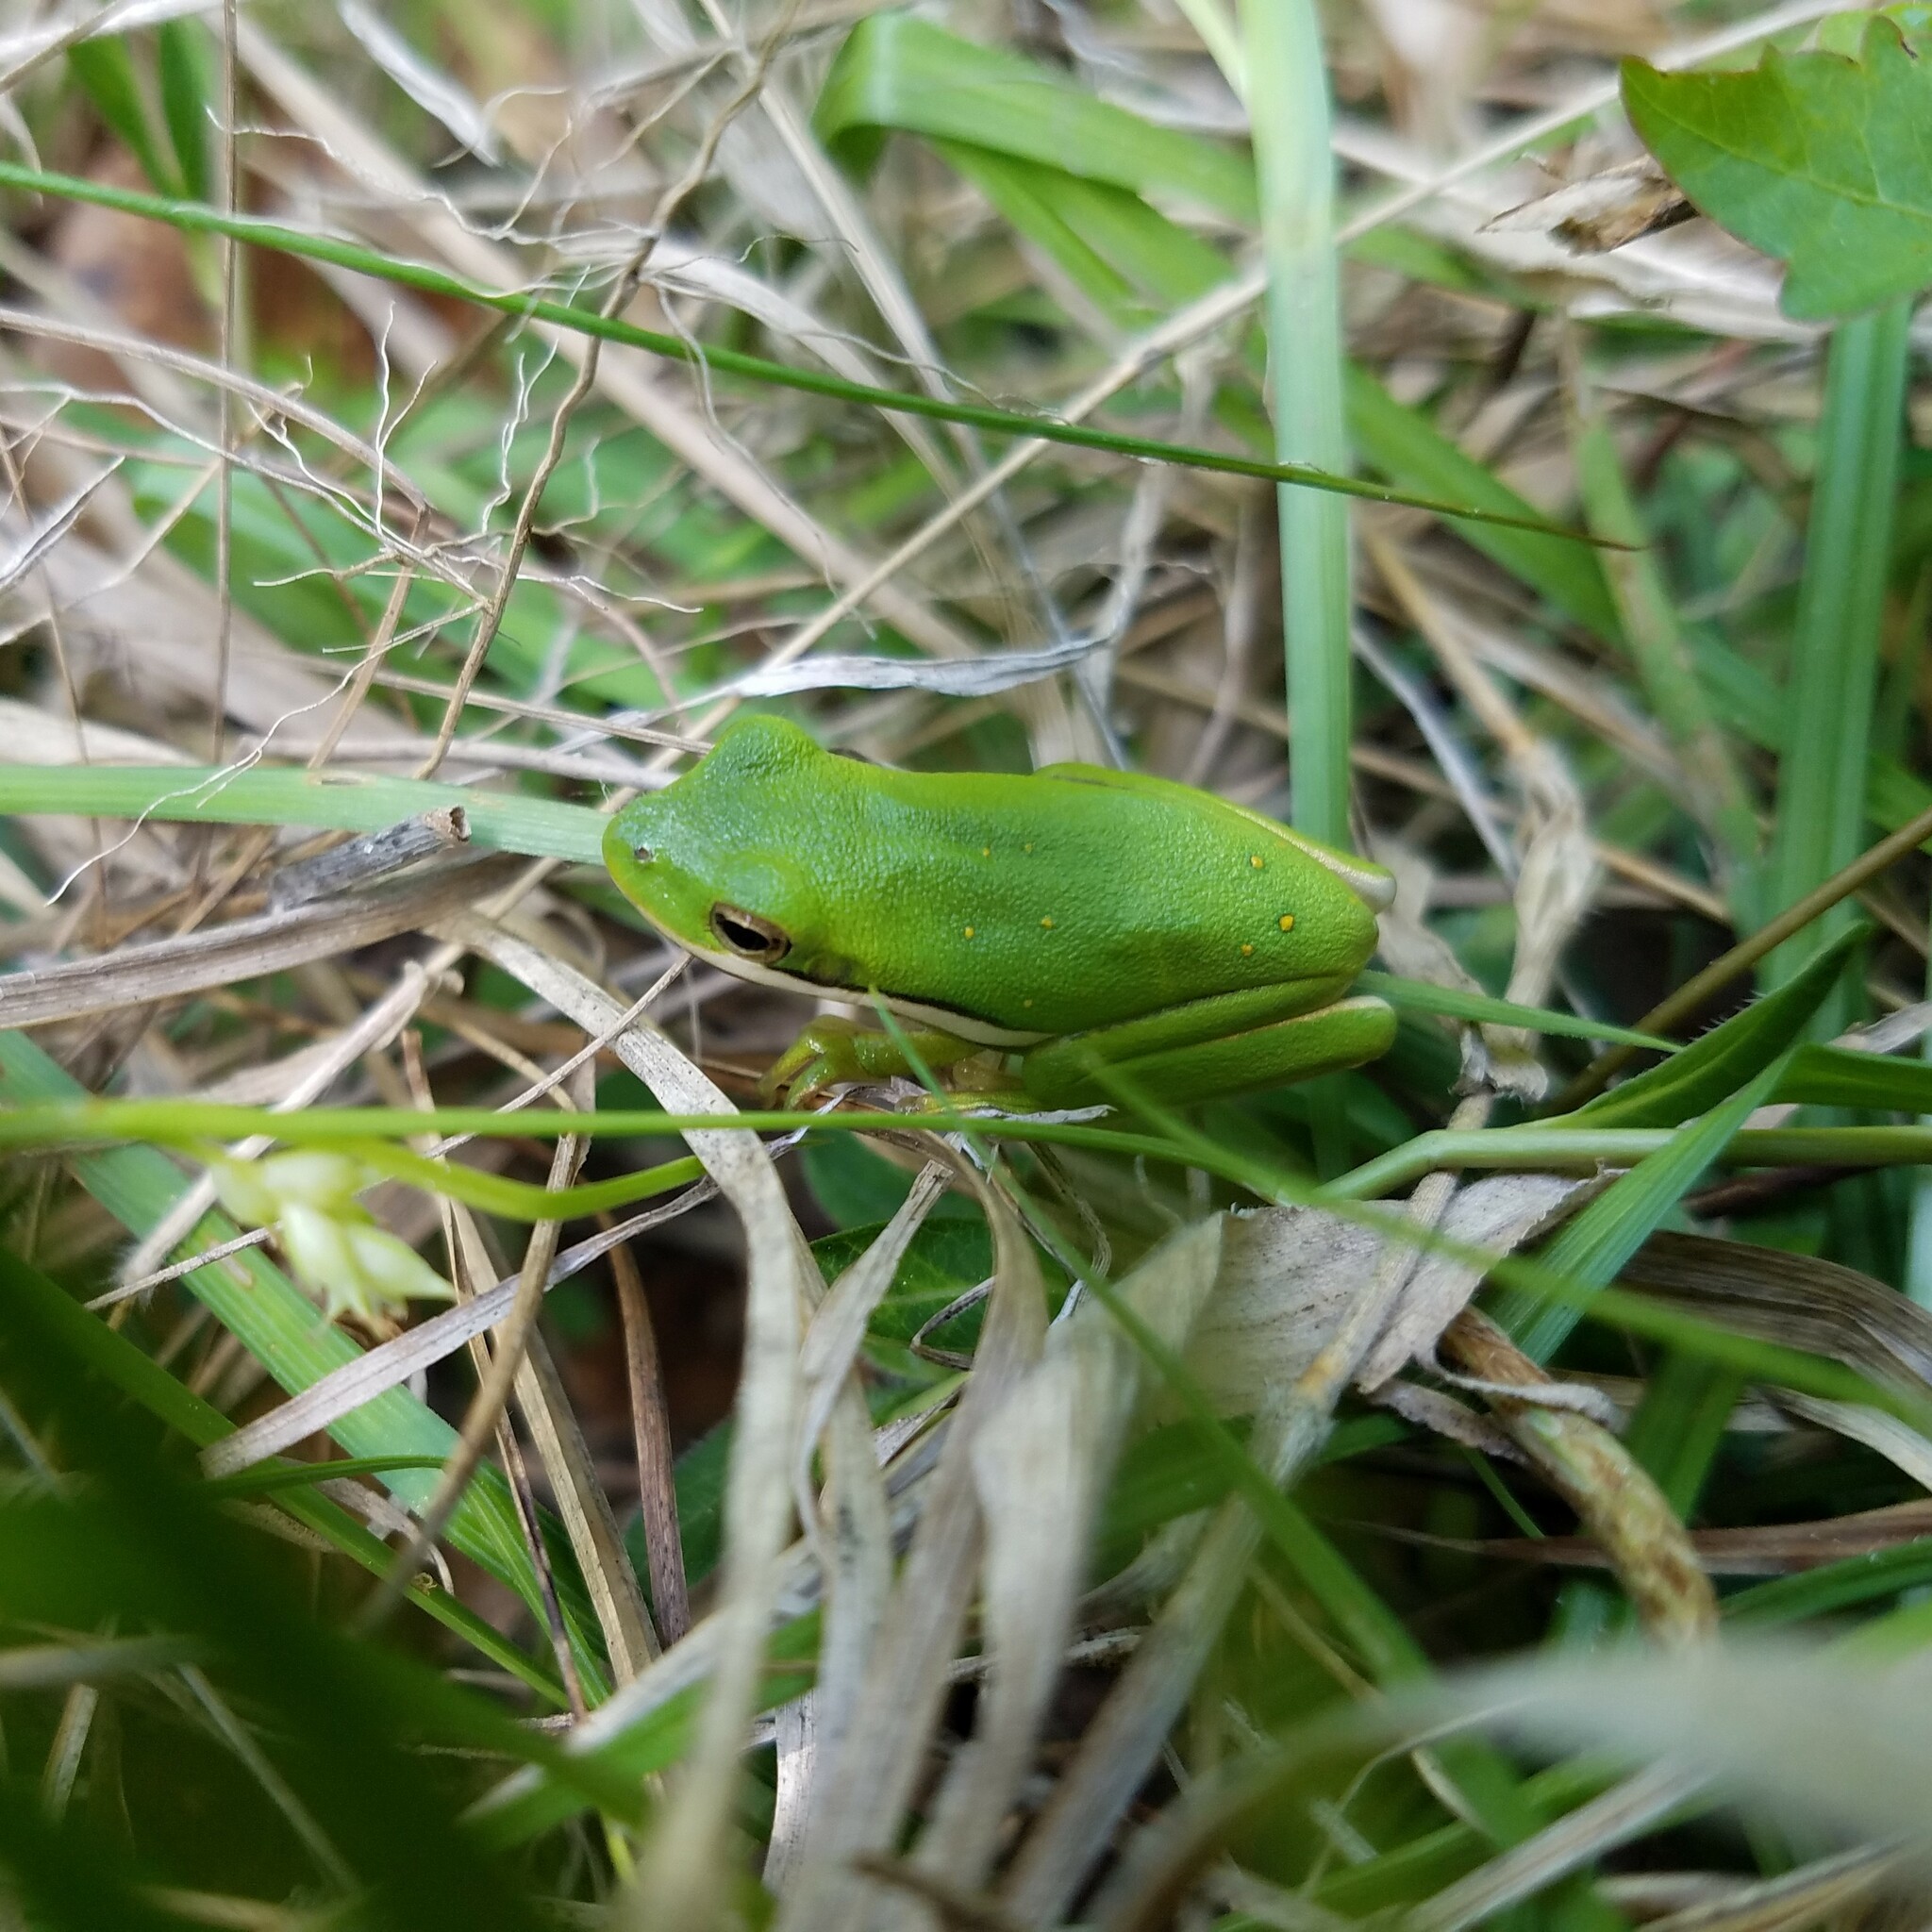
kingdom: Animalia
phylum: Chordata
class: Amphibia
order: Anura
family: Hylidae
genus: Dryophytes
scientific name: Dryophytes cinereus
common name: Green treefrog
